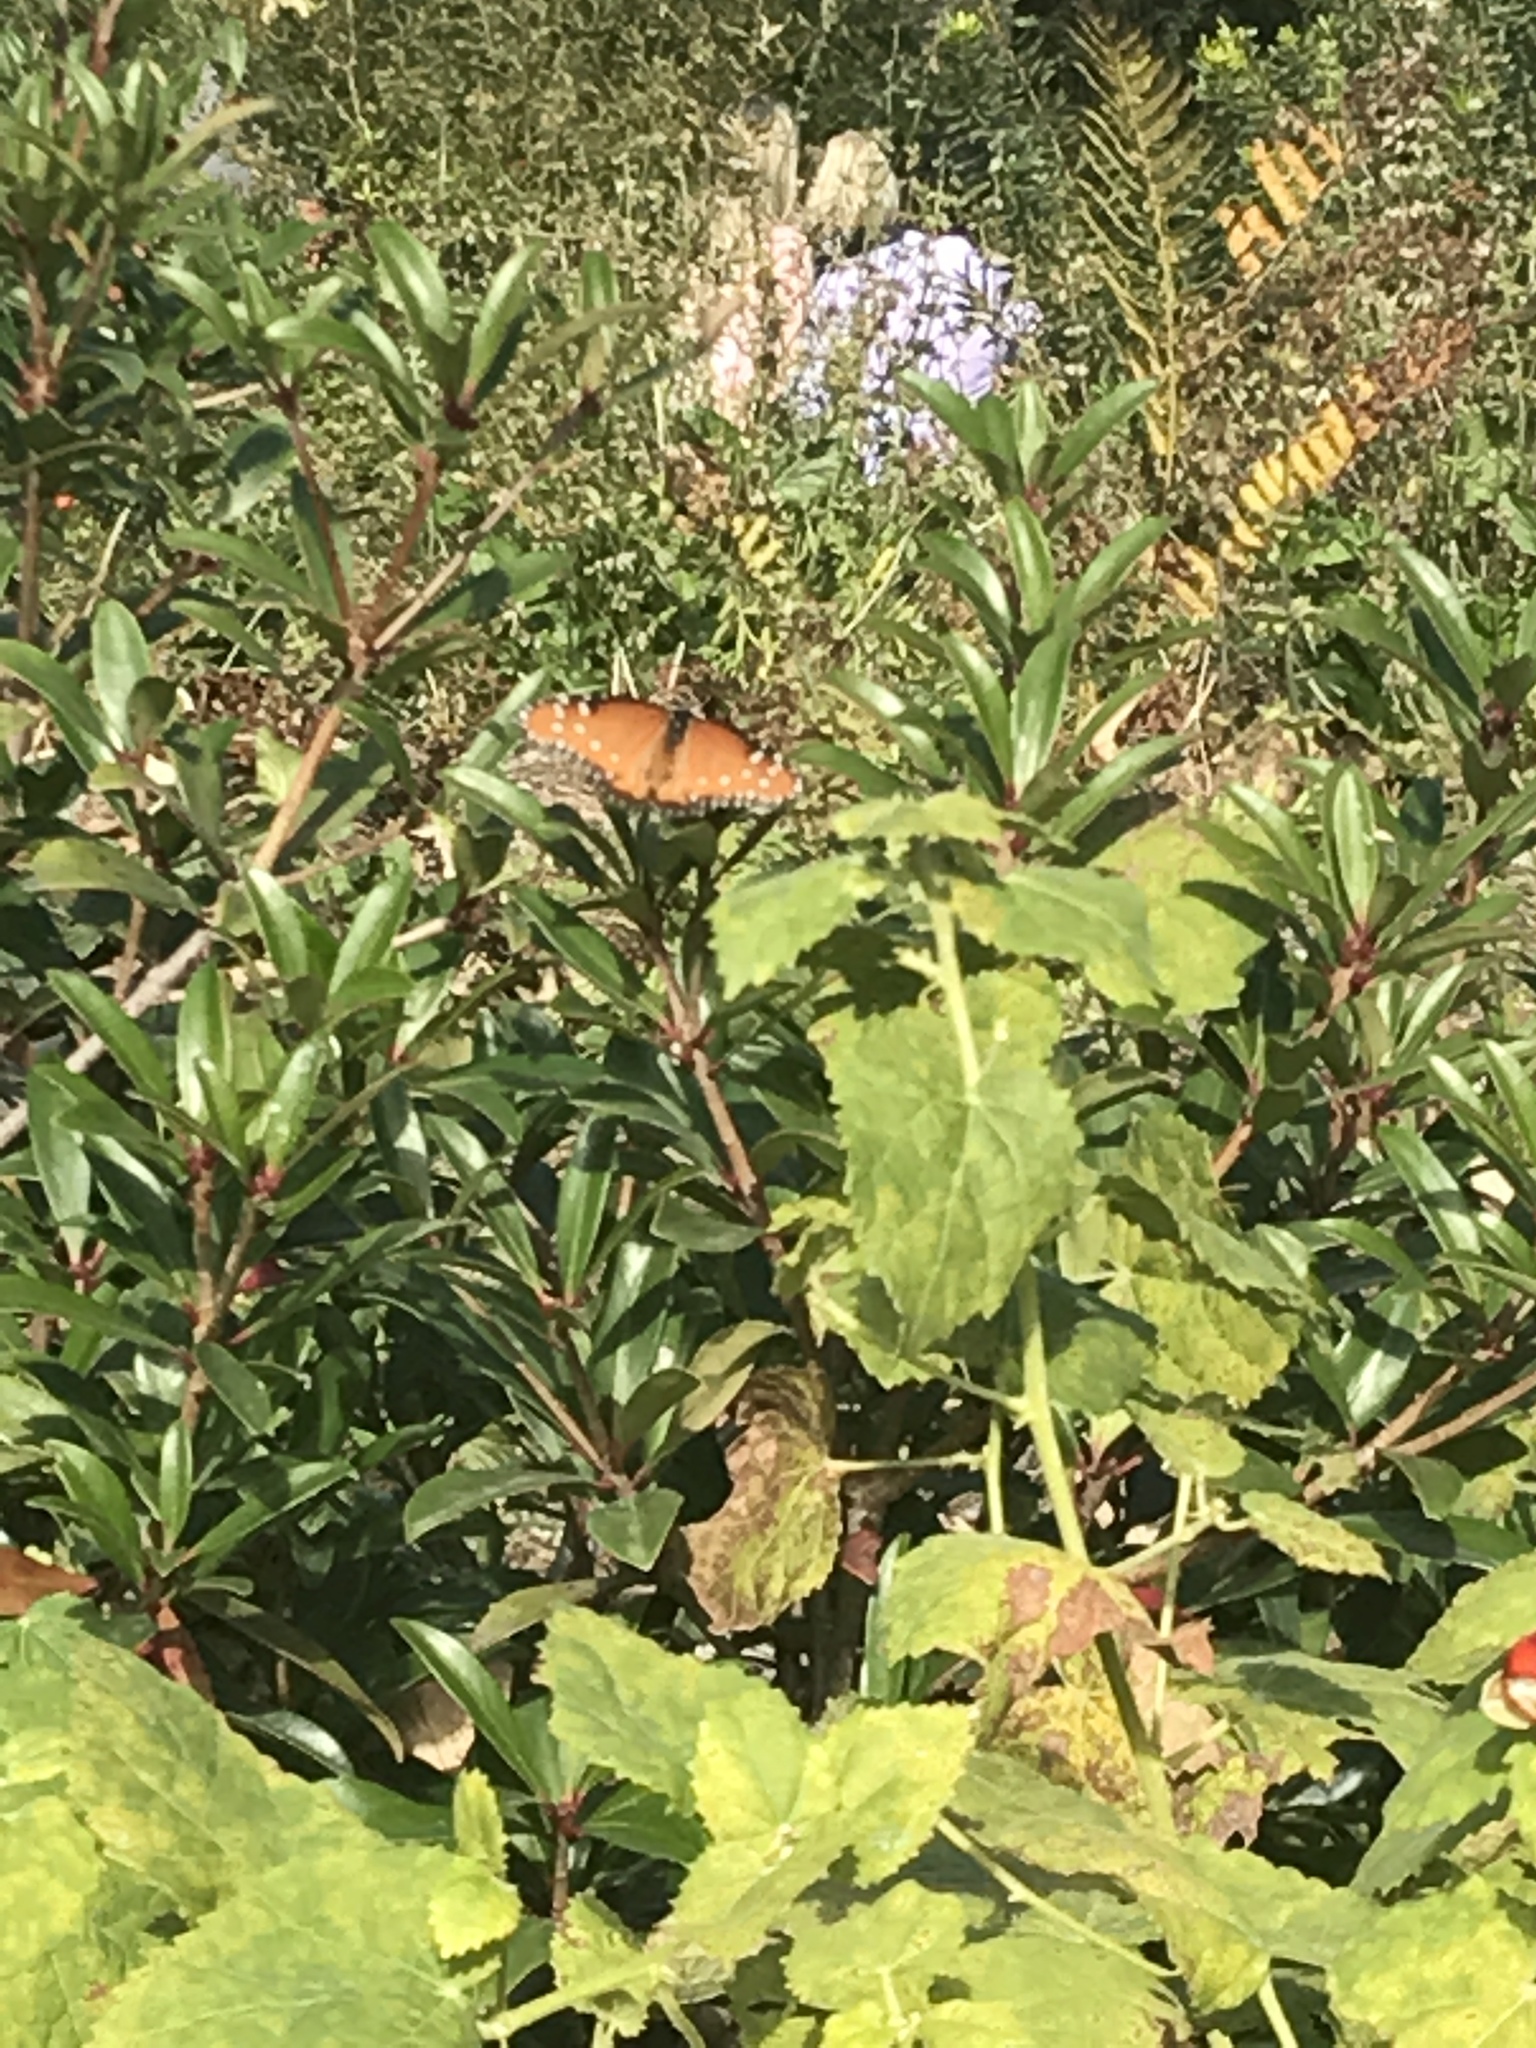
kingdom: Animalia
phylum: Arthropoda
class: Insecta
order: Lepidoptera
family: Nymphalidae
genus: Danaus
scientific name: Danaus gilippus
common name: Queen
